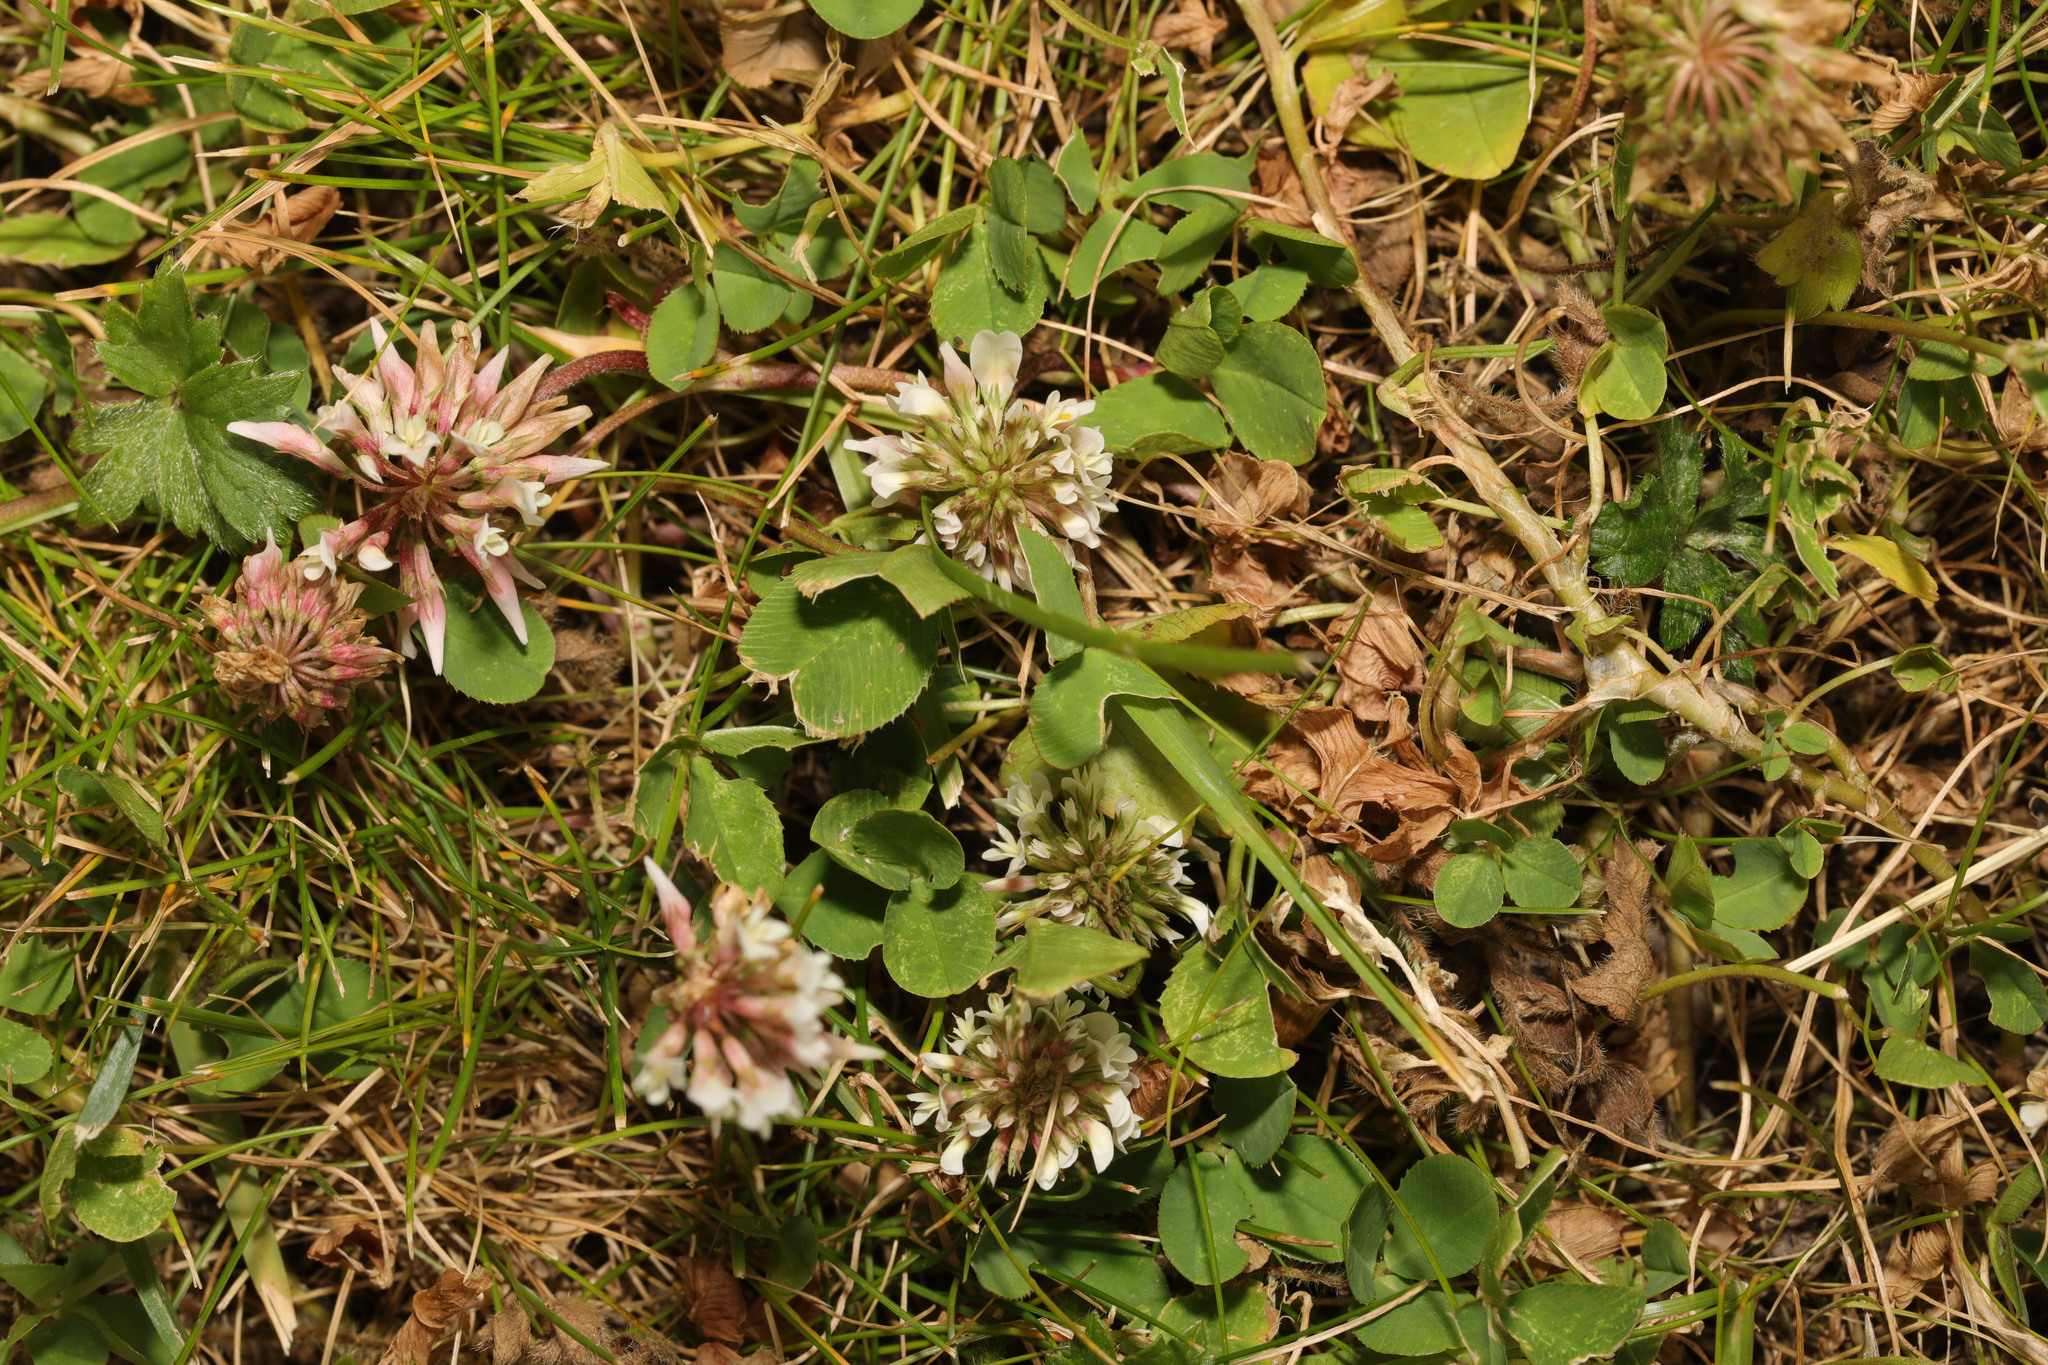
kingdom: Plantae
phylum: Tracheophyta
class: Magnoliopsida
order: Fabales
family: Fabaceae
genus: Trifolium
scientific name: Trifolium repens
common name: White clover
